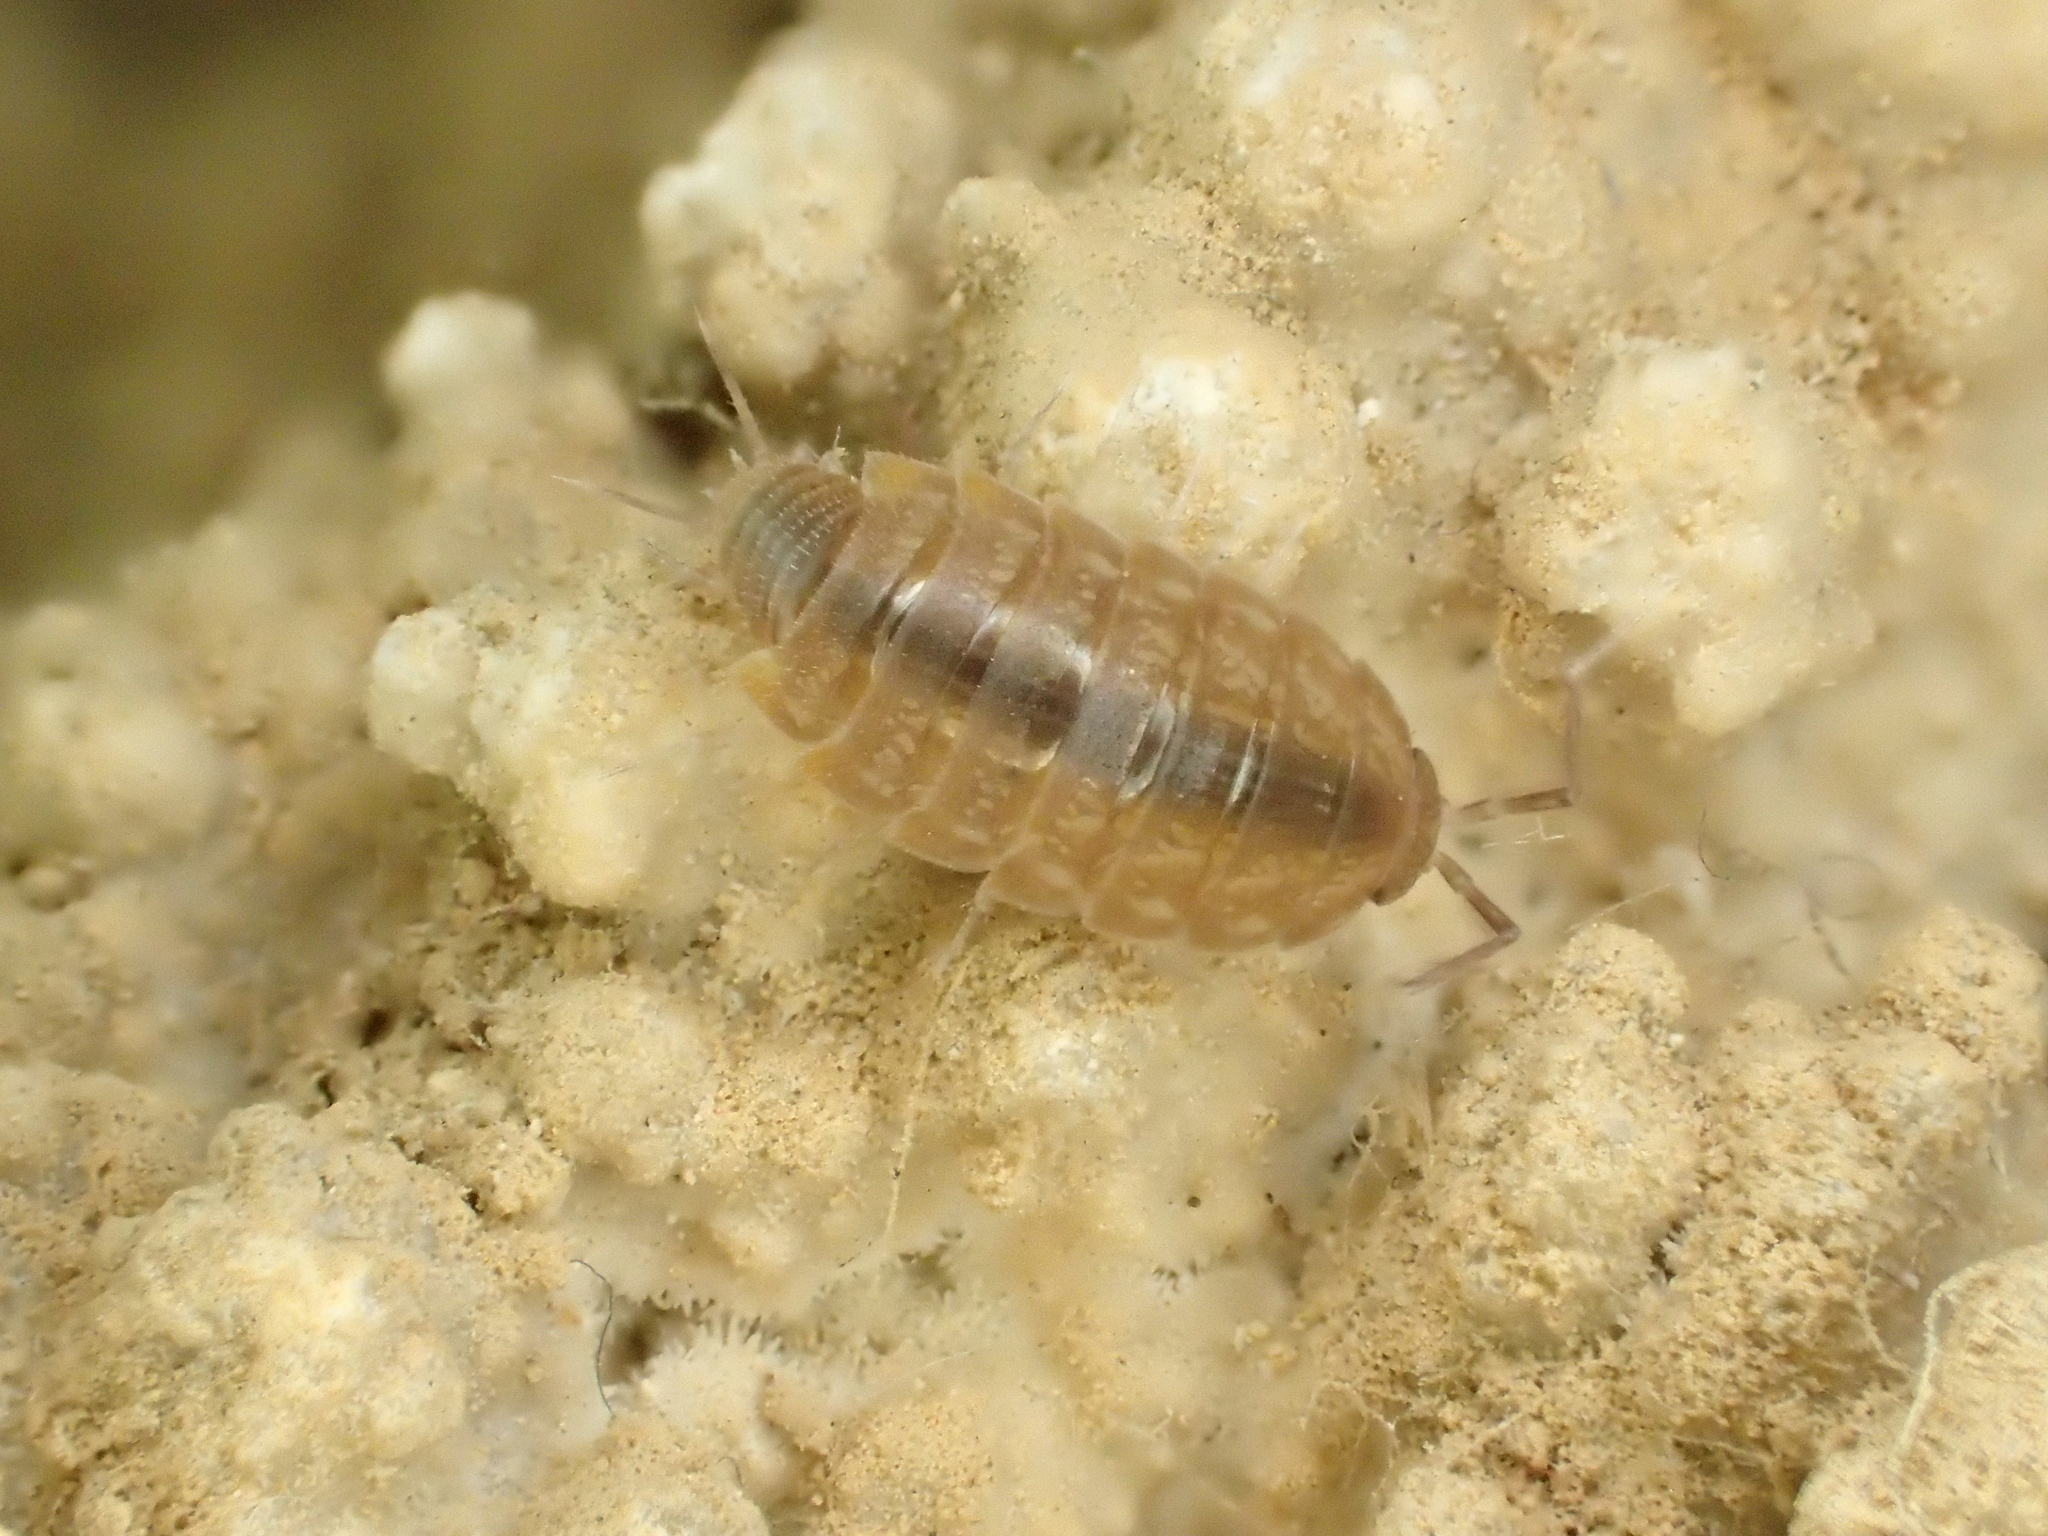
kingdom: Animalia
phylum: Arthropoda
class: Malacostraca
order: Isopoda
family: Philosciidae
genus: Chaetophiloscia
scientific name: Chaetophiloscia cellaria
